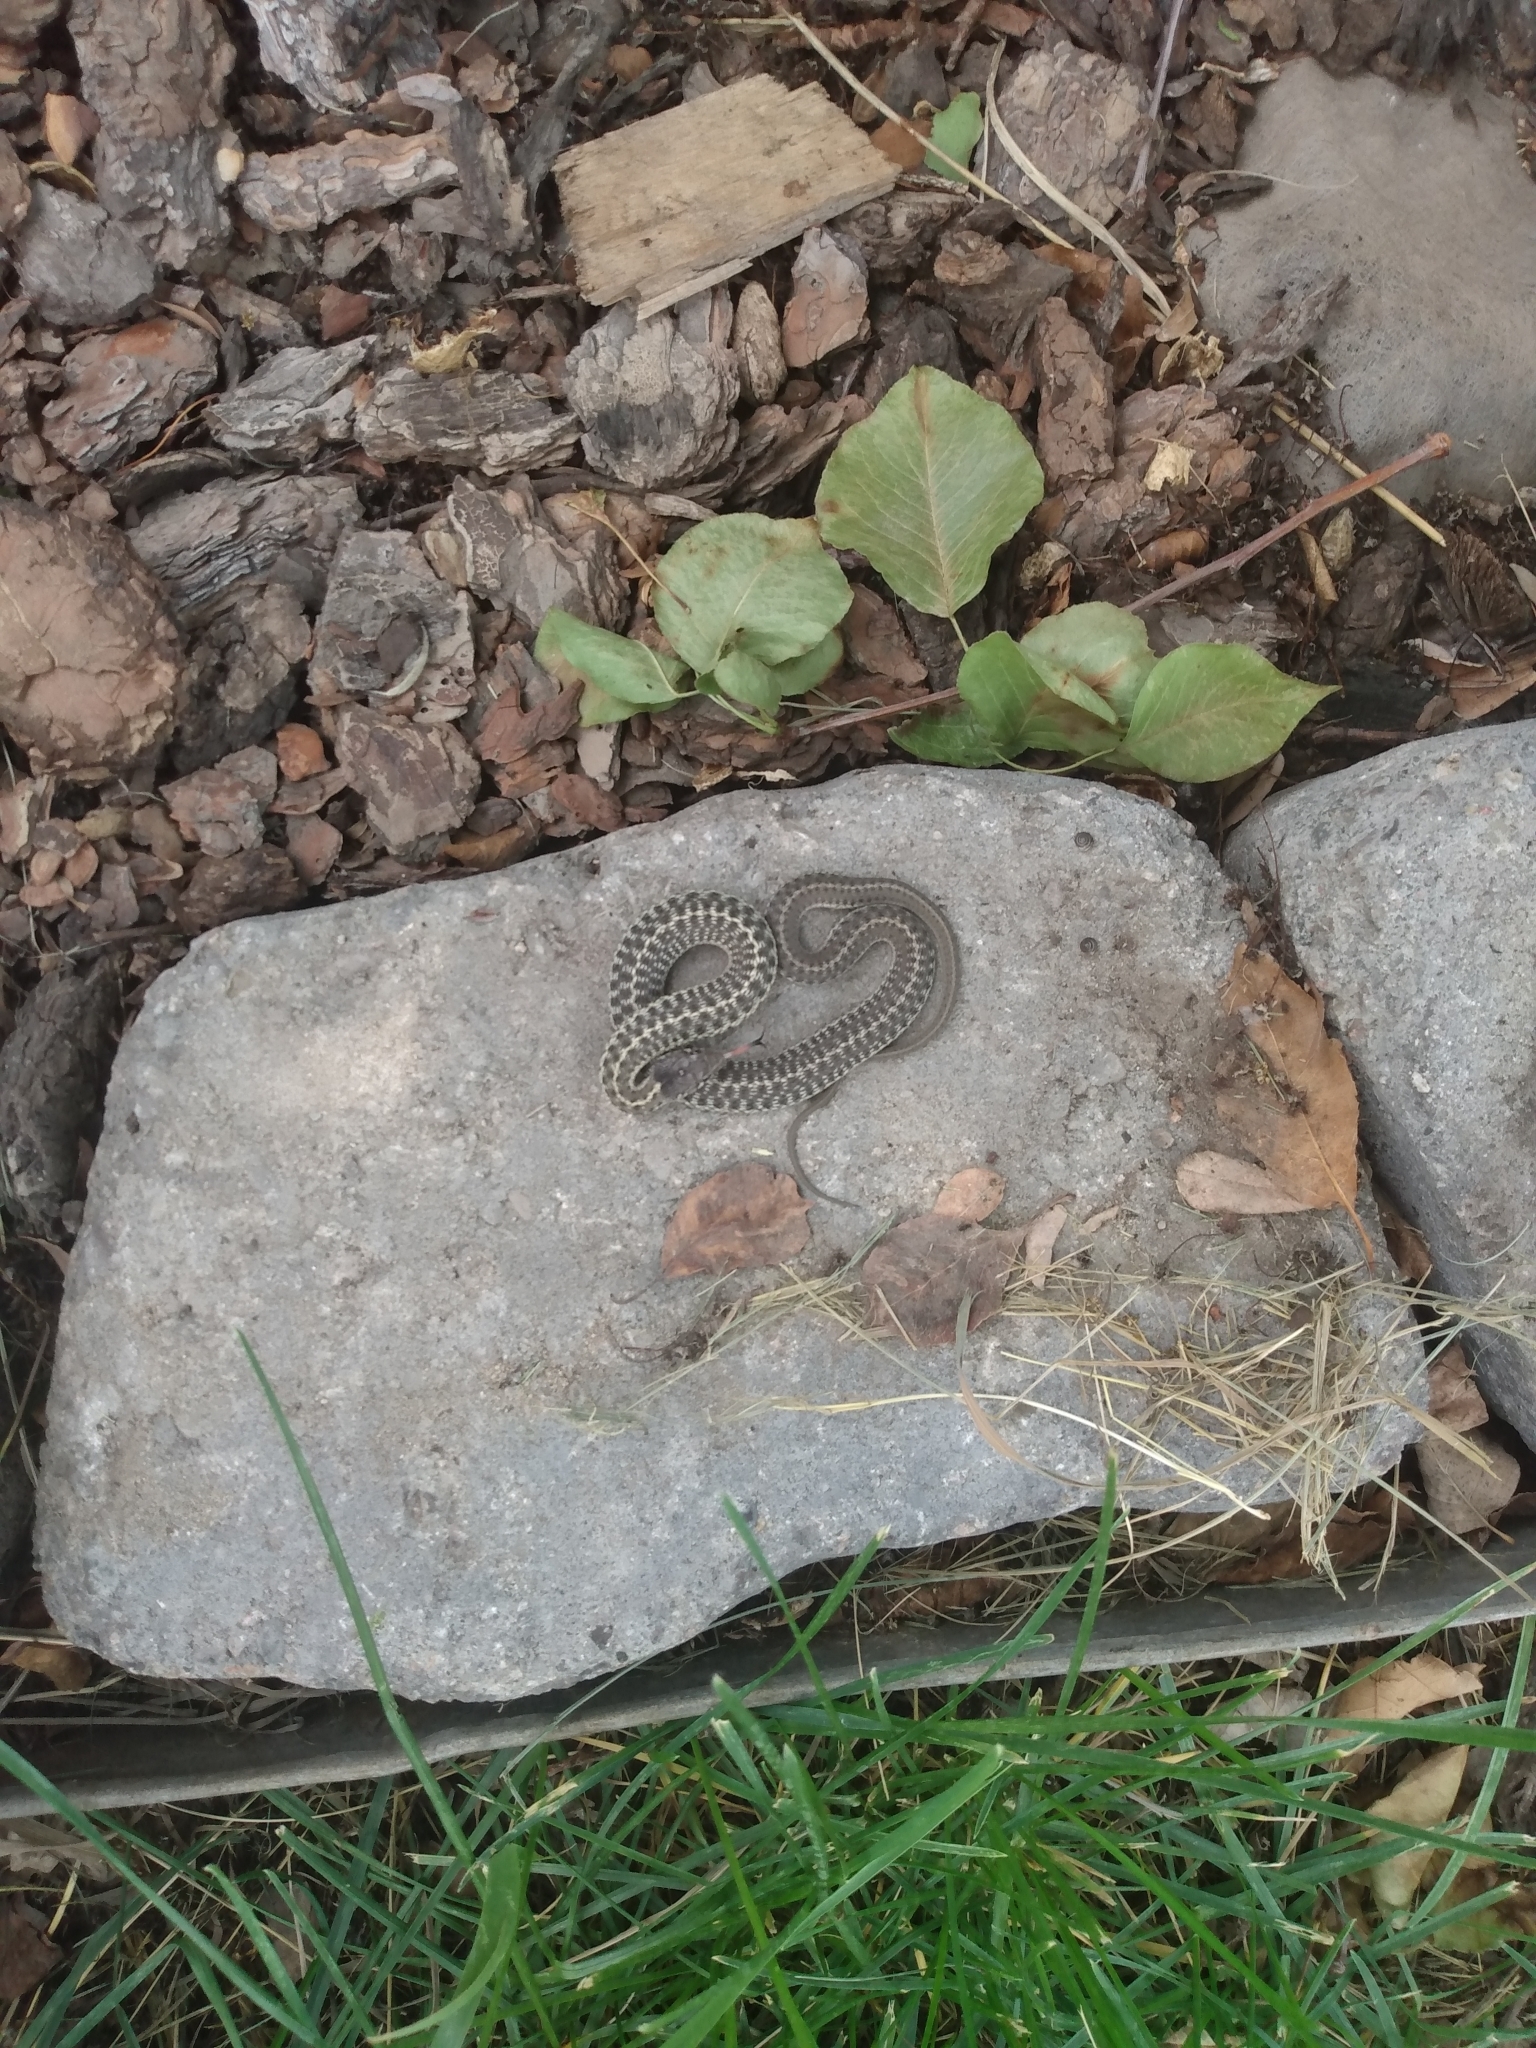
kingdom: Animalia
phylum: Chordata
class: Squamata
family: Colubridae
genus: Thamnophis
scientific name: Thamnophis elegans
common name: Western terrestrial garter snake
